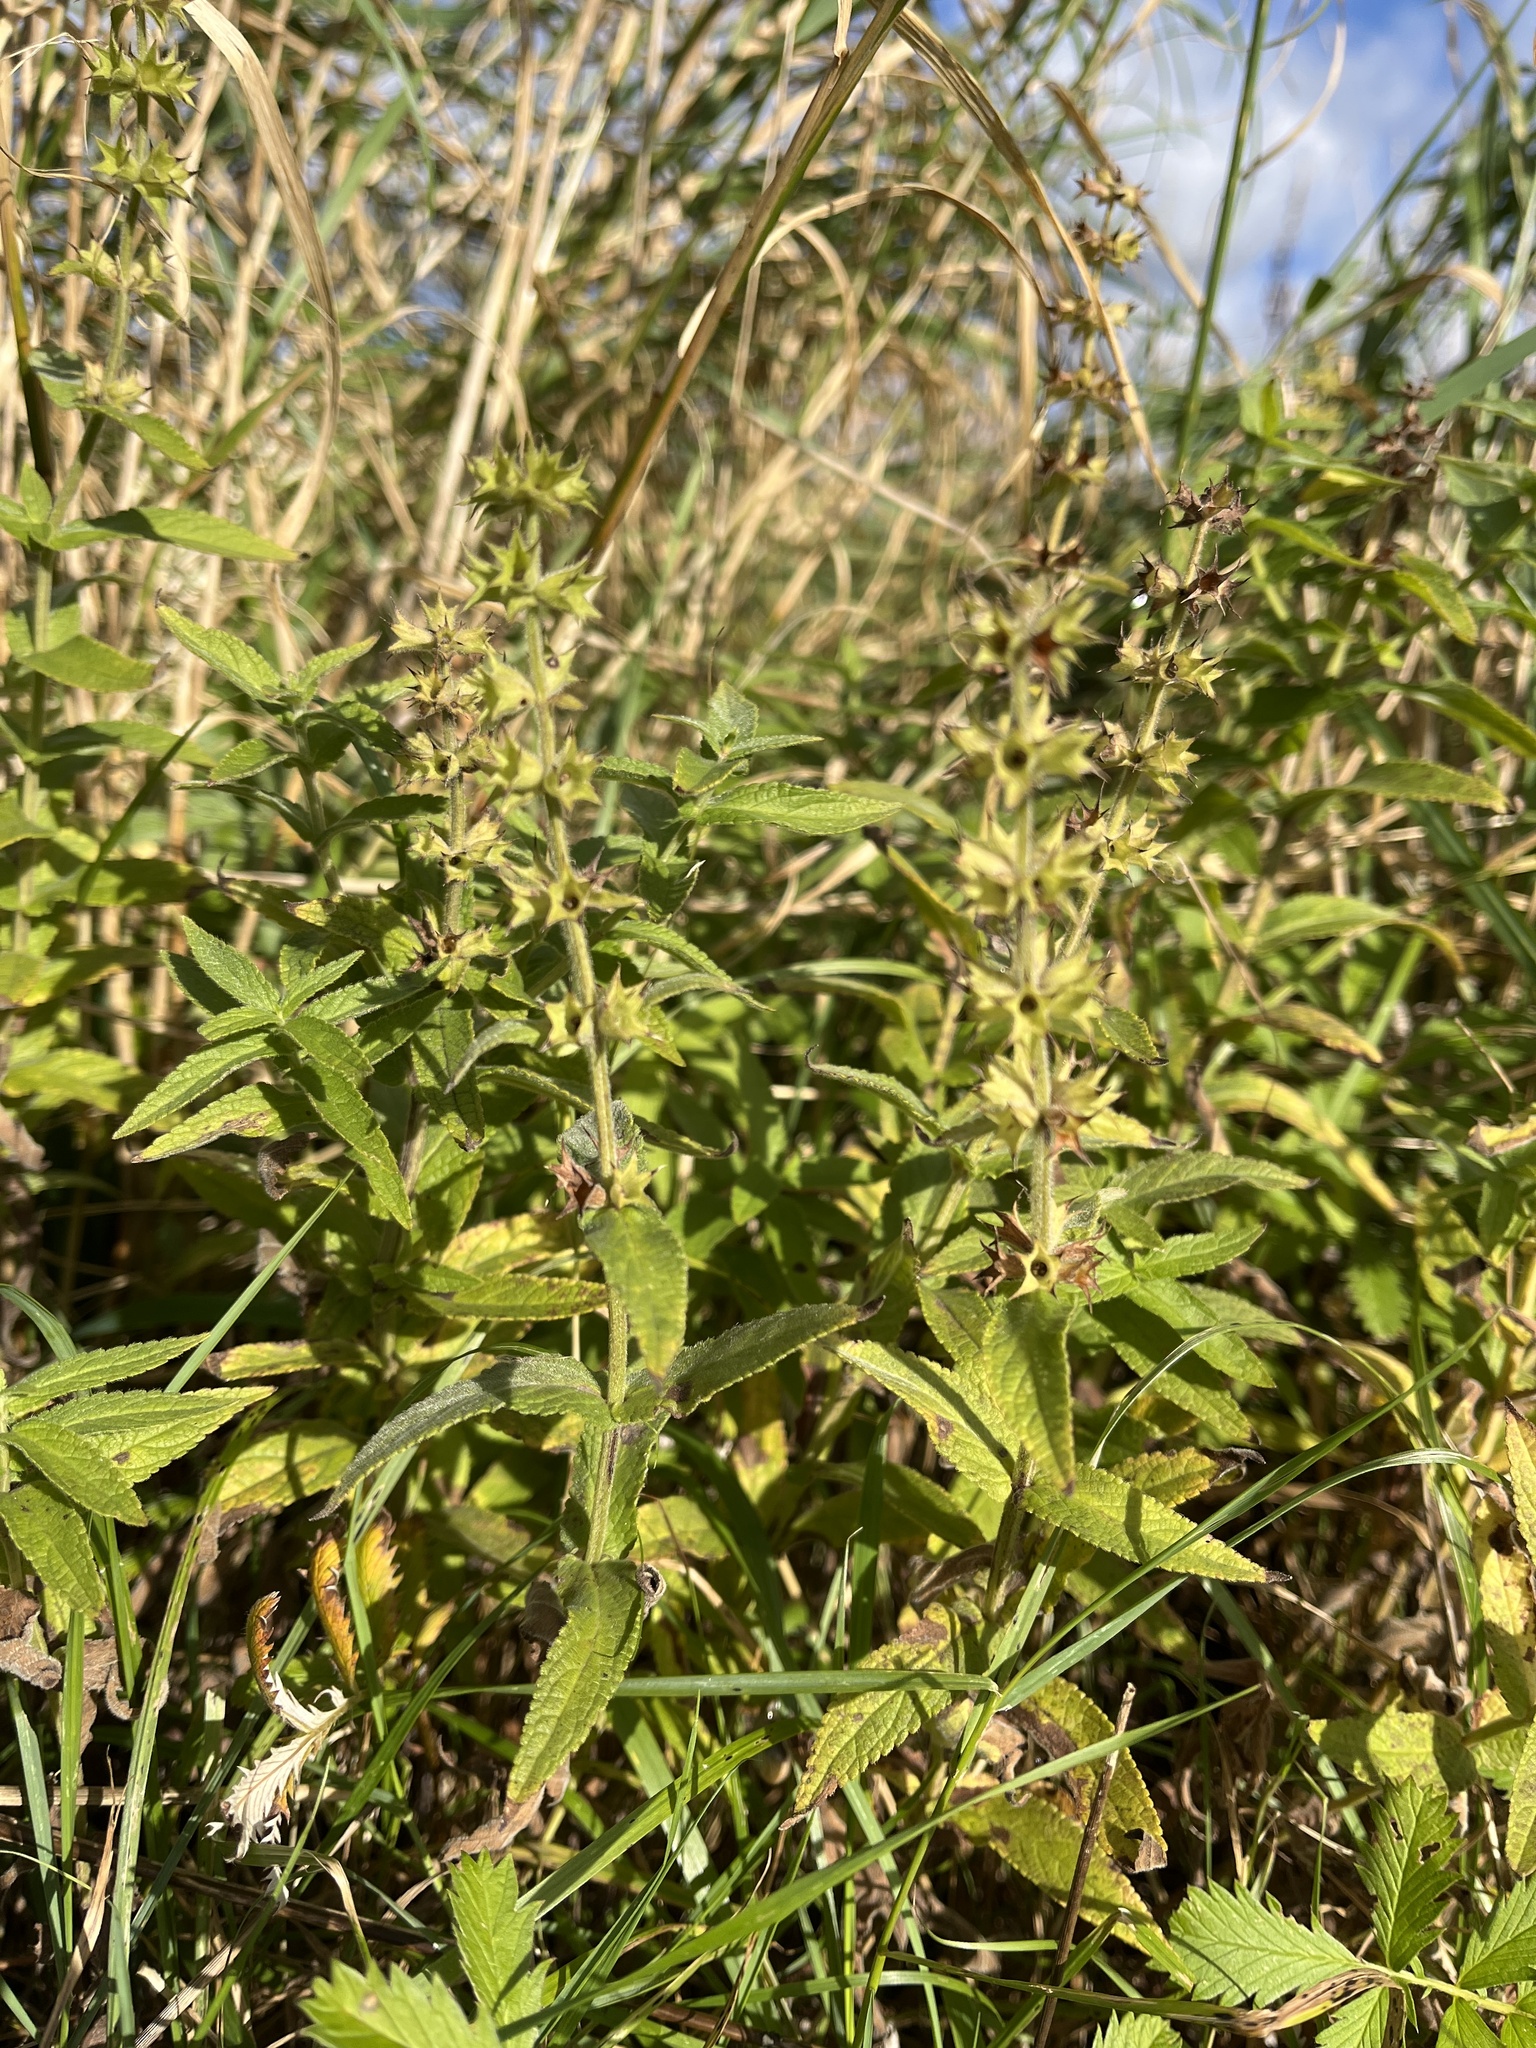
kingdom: Plantae
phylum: Tracheophyta
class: Magnoliopsida
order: Lamiales
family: Lamiaceae
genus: Stachys
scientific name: Stachys palustris
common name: Marsh woundwort
